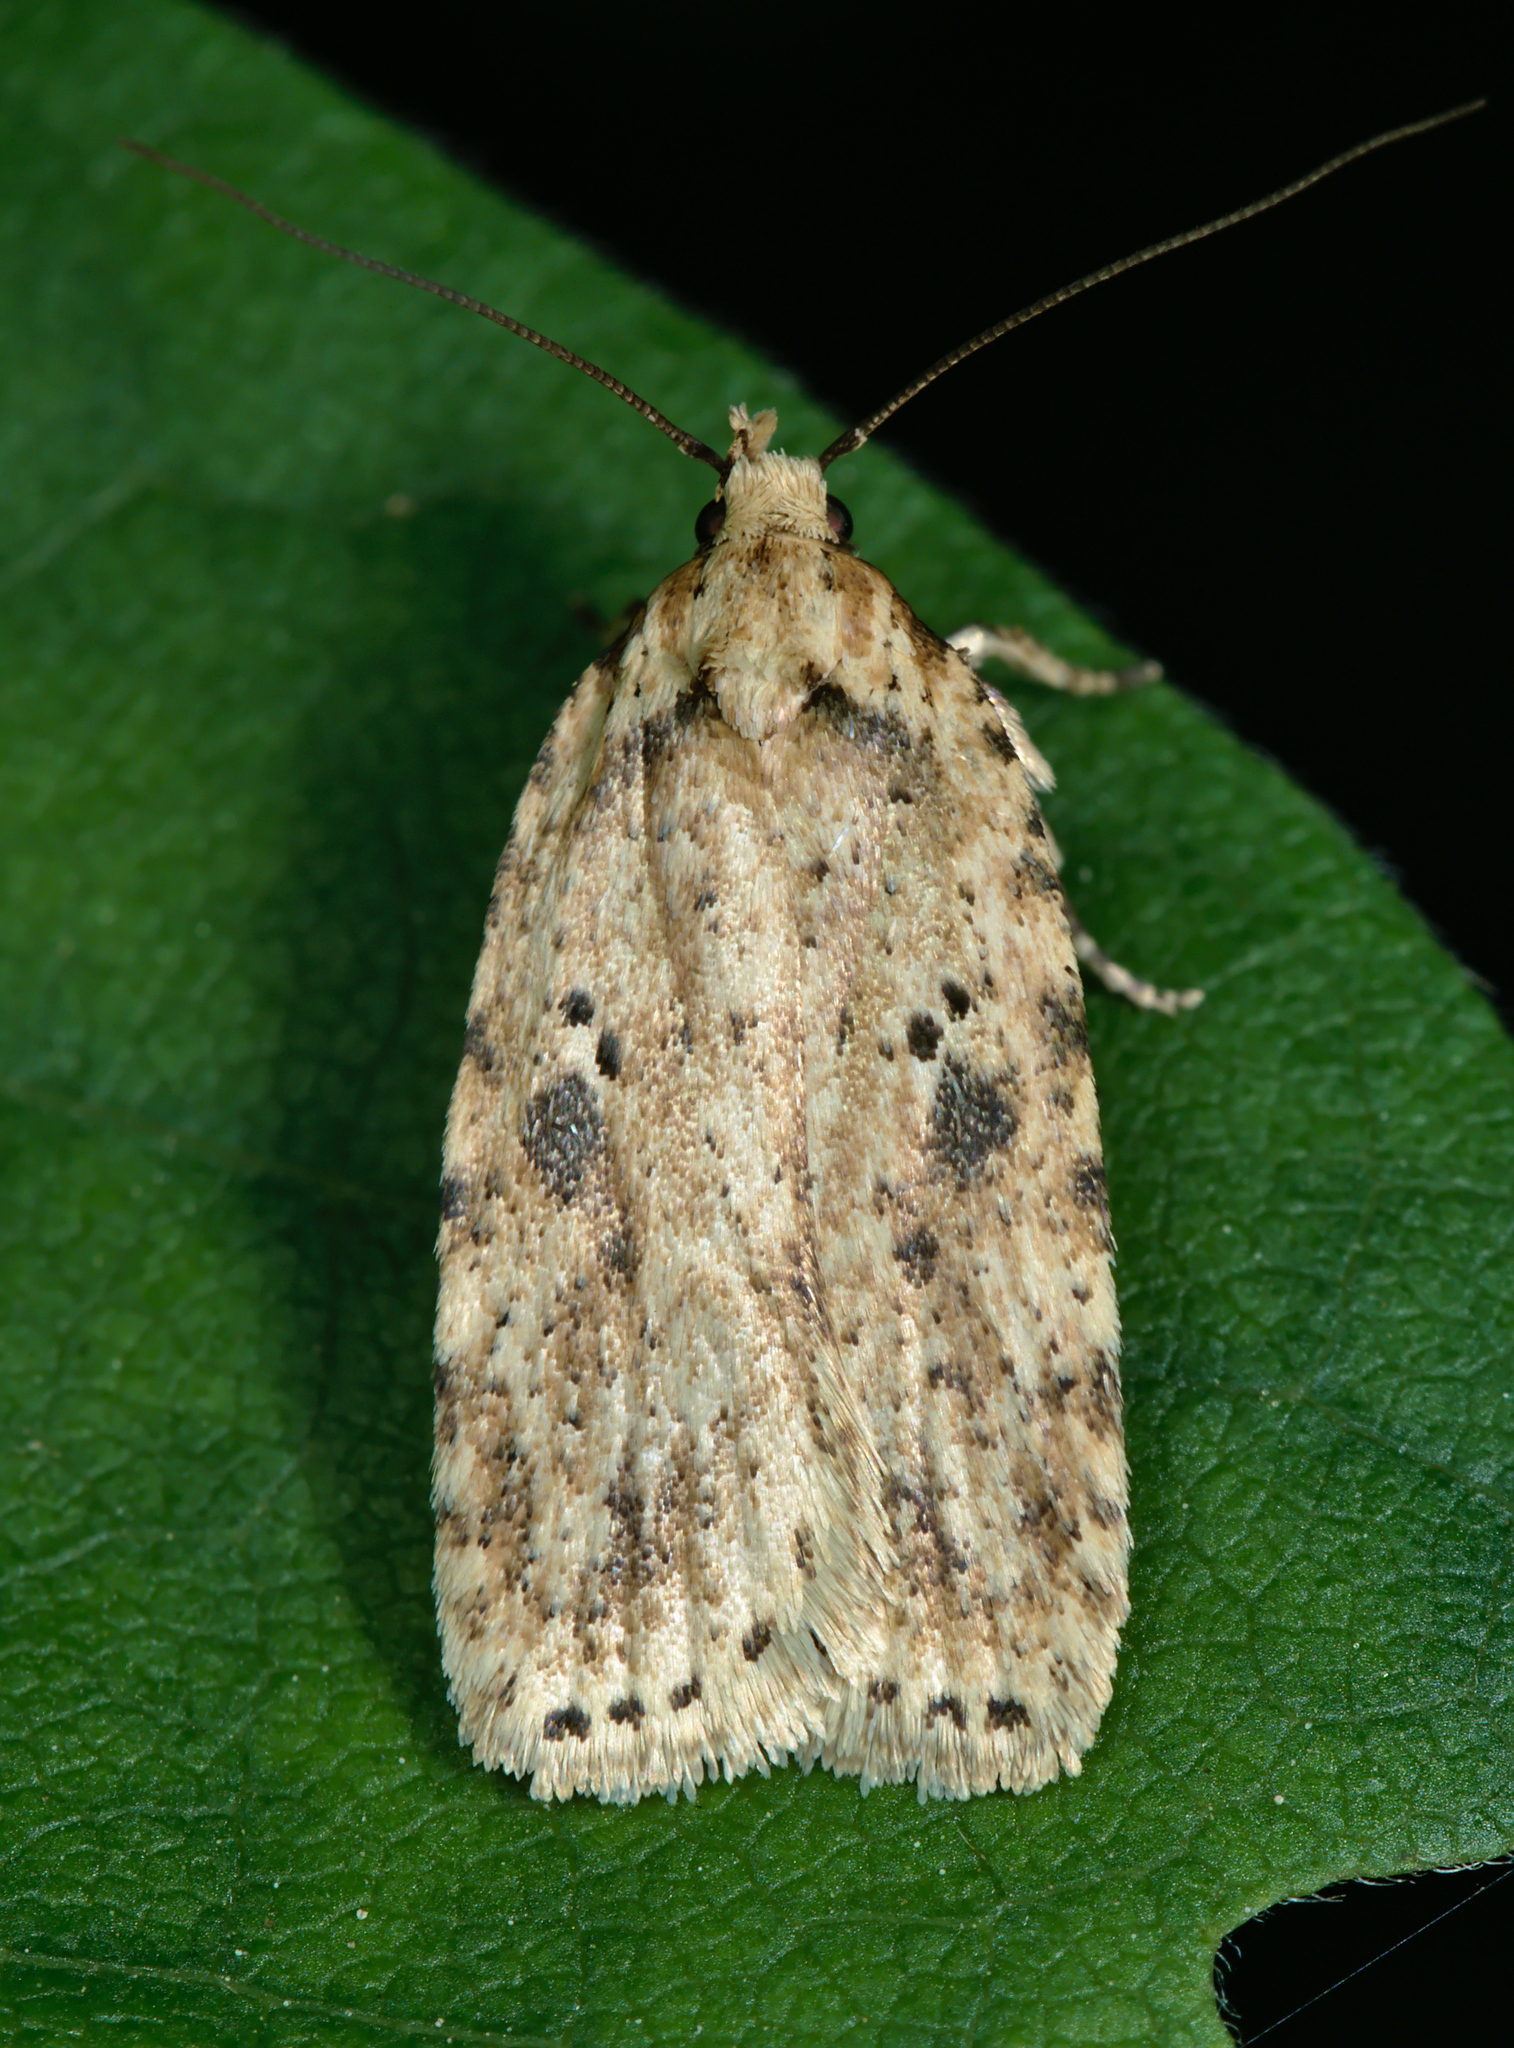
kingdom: Animalia
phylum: Arthropoda
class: Insecta
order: Lepidoptera
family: Depressariidae
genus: Agonopterix
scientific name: Agonopterix arenella
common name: Brindled flat-body
